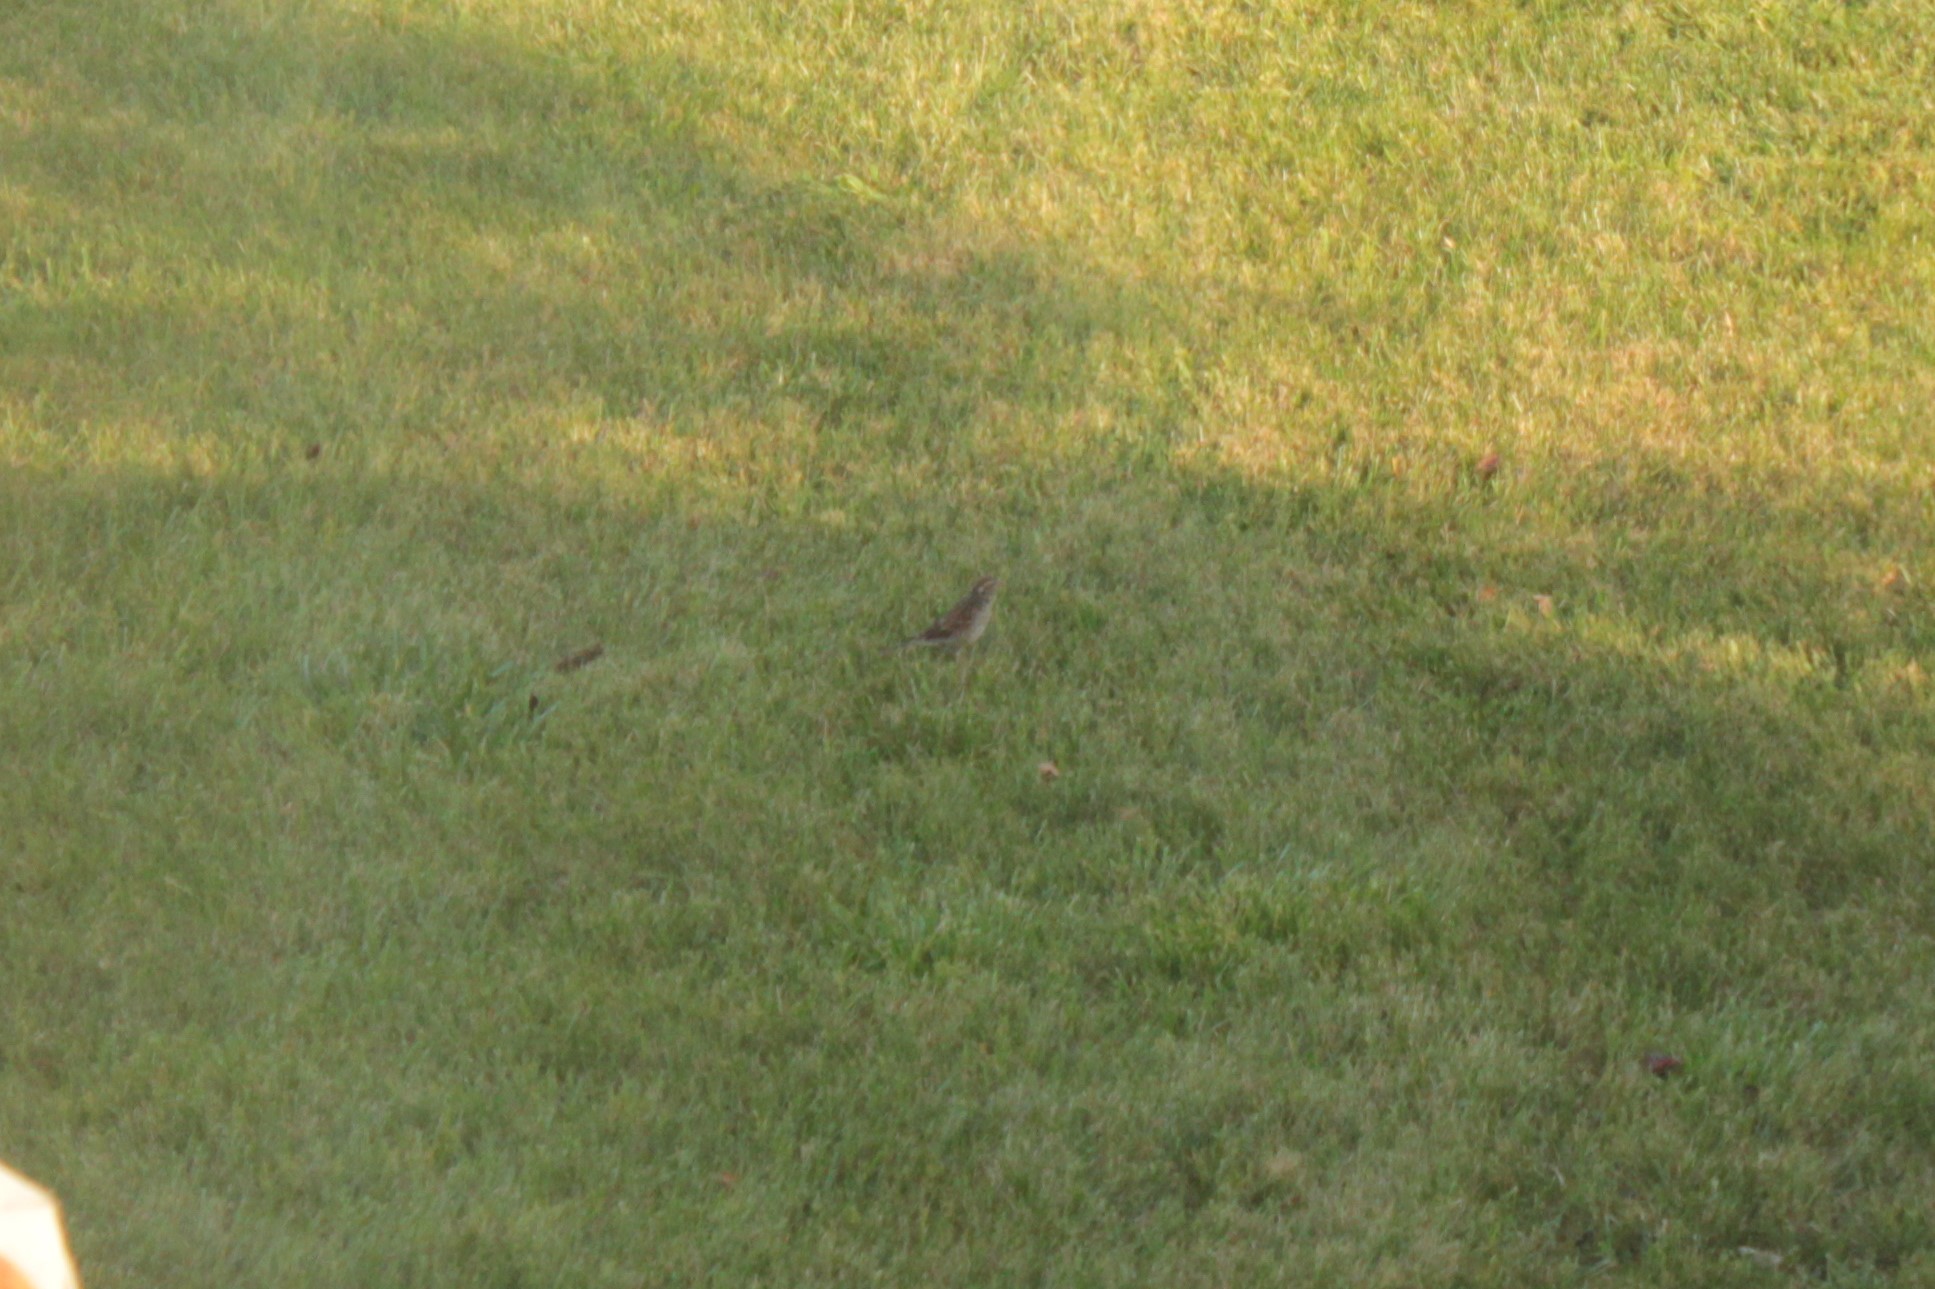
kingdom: Animalia
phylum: Chordata
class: Aves
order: Passeriformes
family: Passeridae
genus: Passer
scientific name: Passer domesticus
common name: House sparrow
